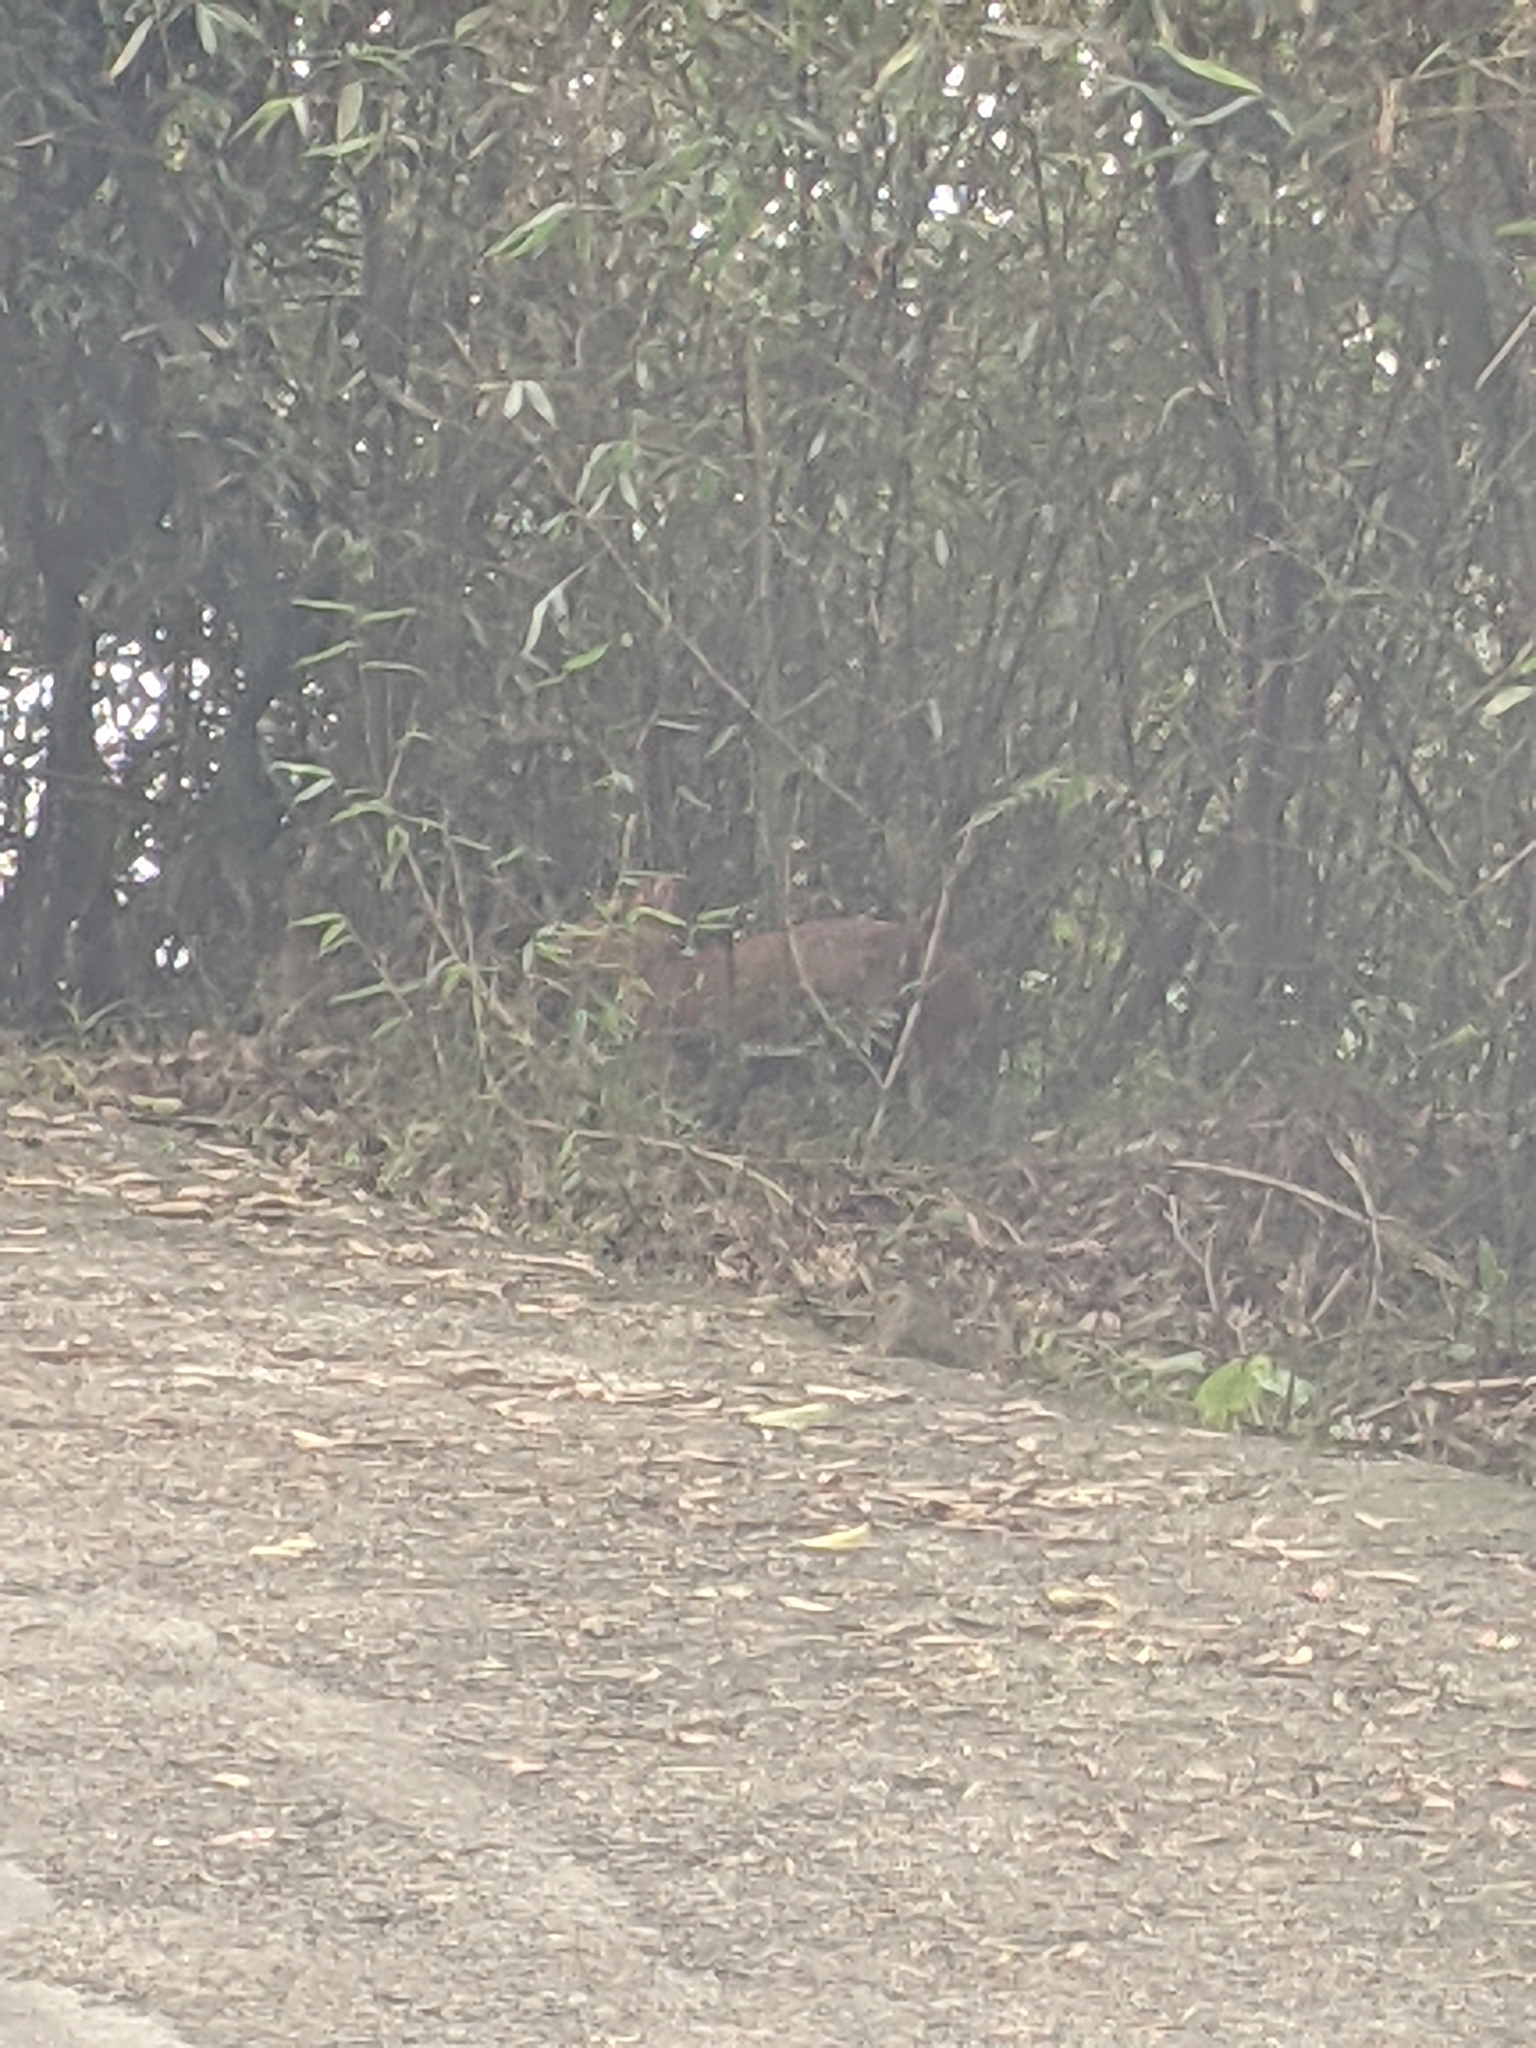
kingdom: Animalia
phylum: Chordata
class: Mammalia
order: Artiodactyla
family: Cervidae
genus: Muntiacus
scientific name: Muntiacus reevesi
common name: Reeves' muntjac
